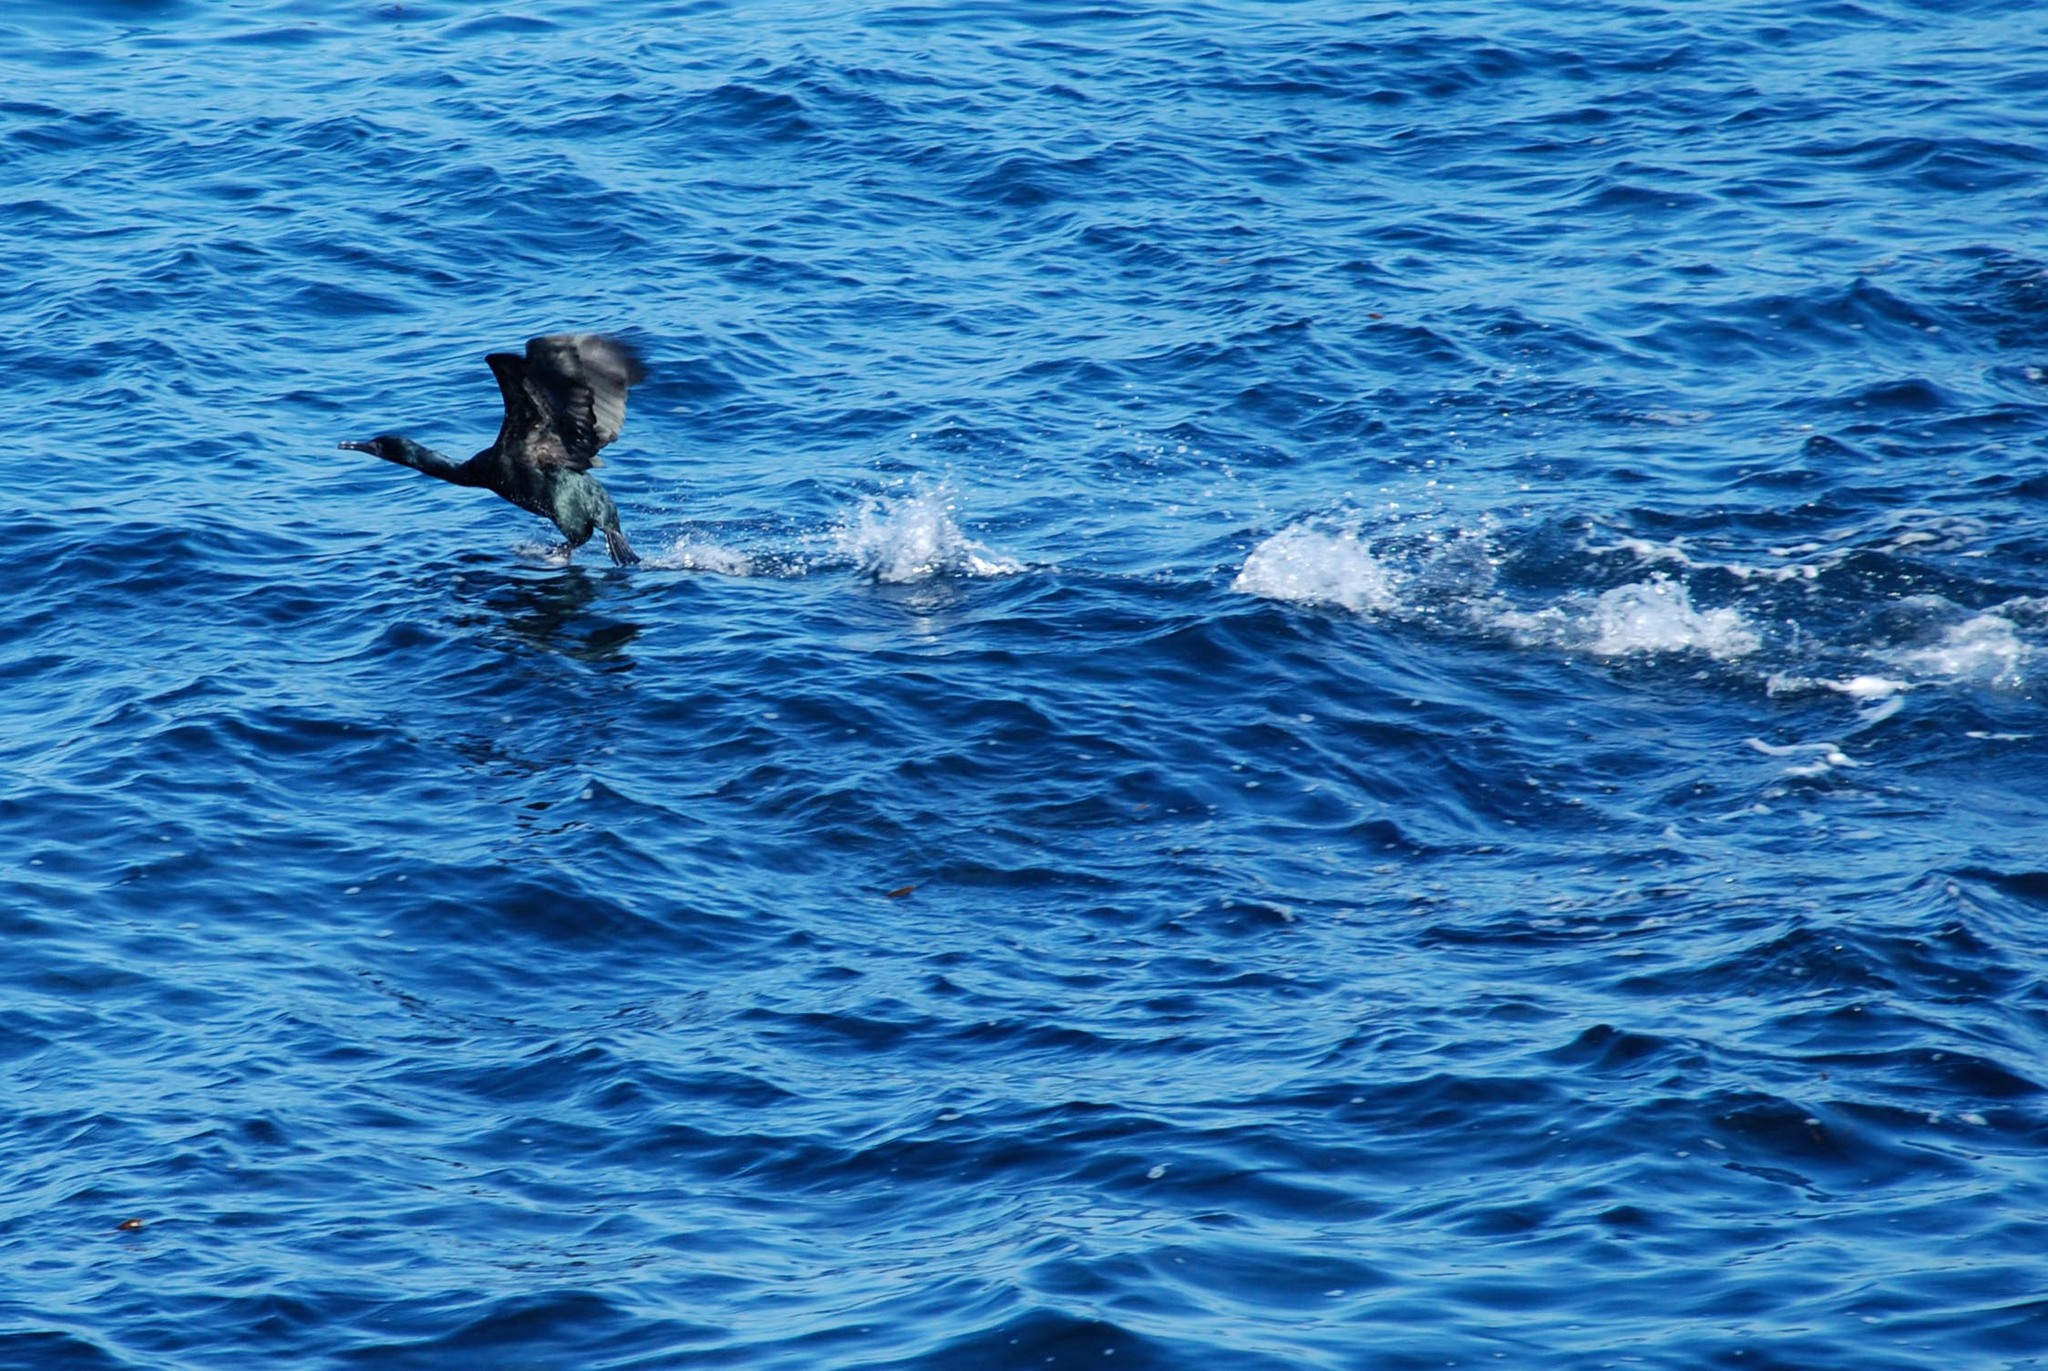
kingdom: Animalia
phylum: Chordata
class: Aves
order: Suliformes
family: Phalacrocoracidae
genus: Urile
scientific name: Urile penicillatus
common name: Brandt's cormorant
